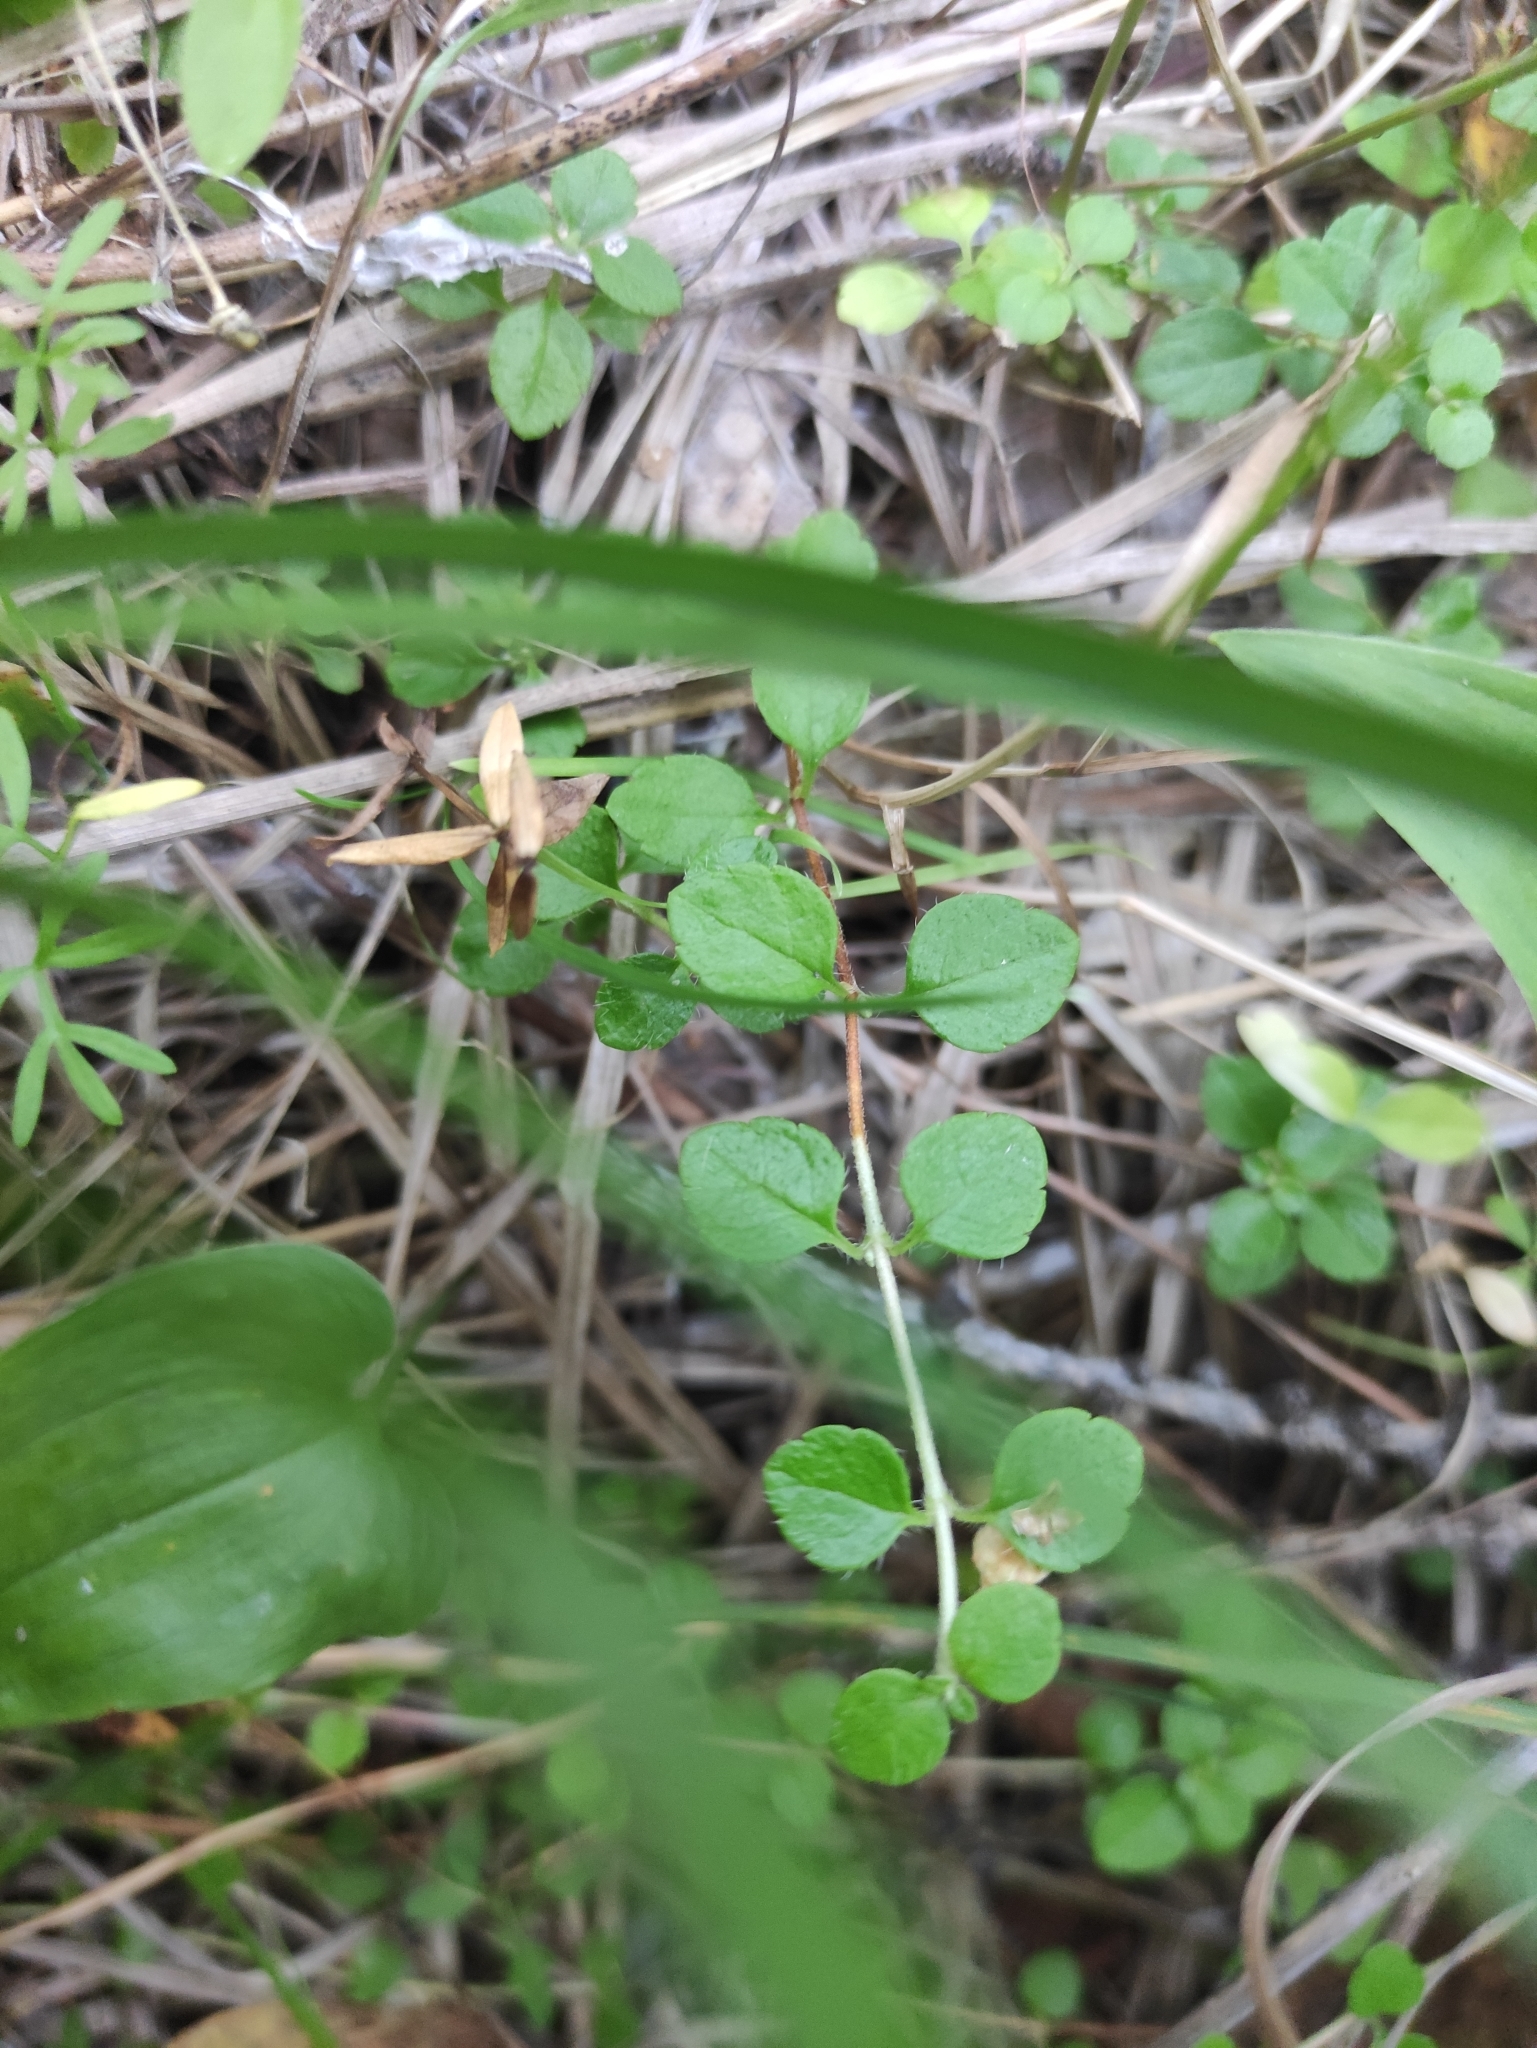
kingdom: Plantae
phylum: Tracheophyta
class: Magnoliopsida
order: Dipsacales
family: Caprifoliaceae
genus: Linnaea
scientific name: Linnaea borealis
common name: Twinflower
